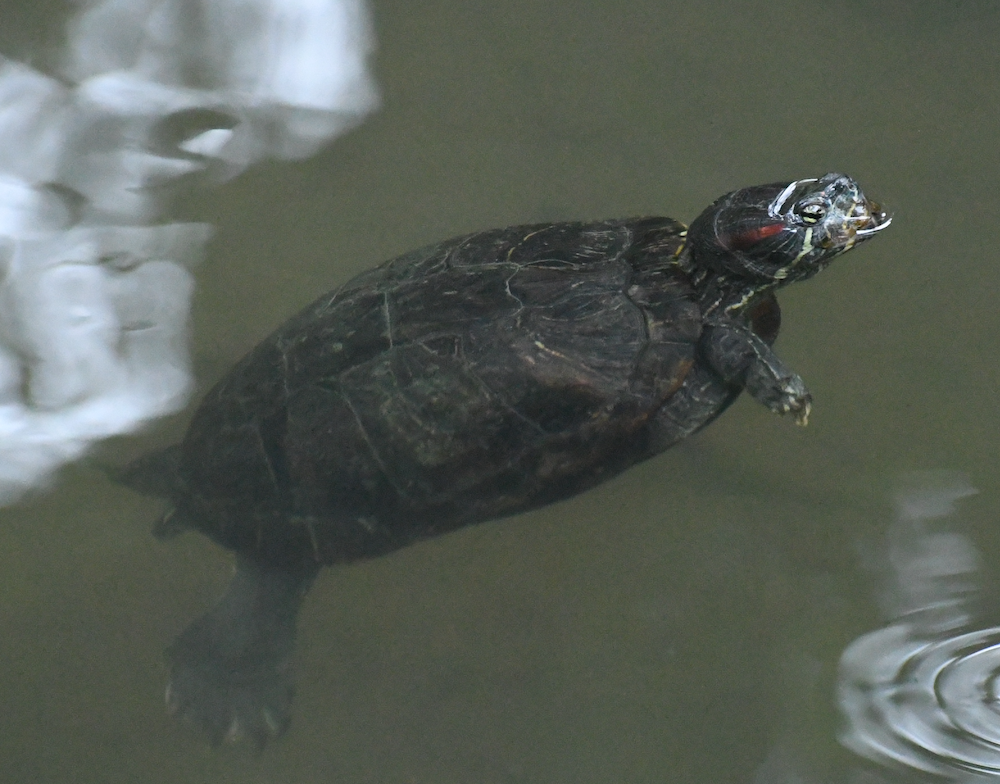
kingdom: Animalia
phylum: Chordata
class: Testudines
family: Emydidae
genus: Trachemys
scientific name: Trachemys scripta
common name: Slider
